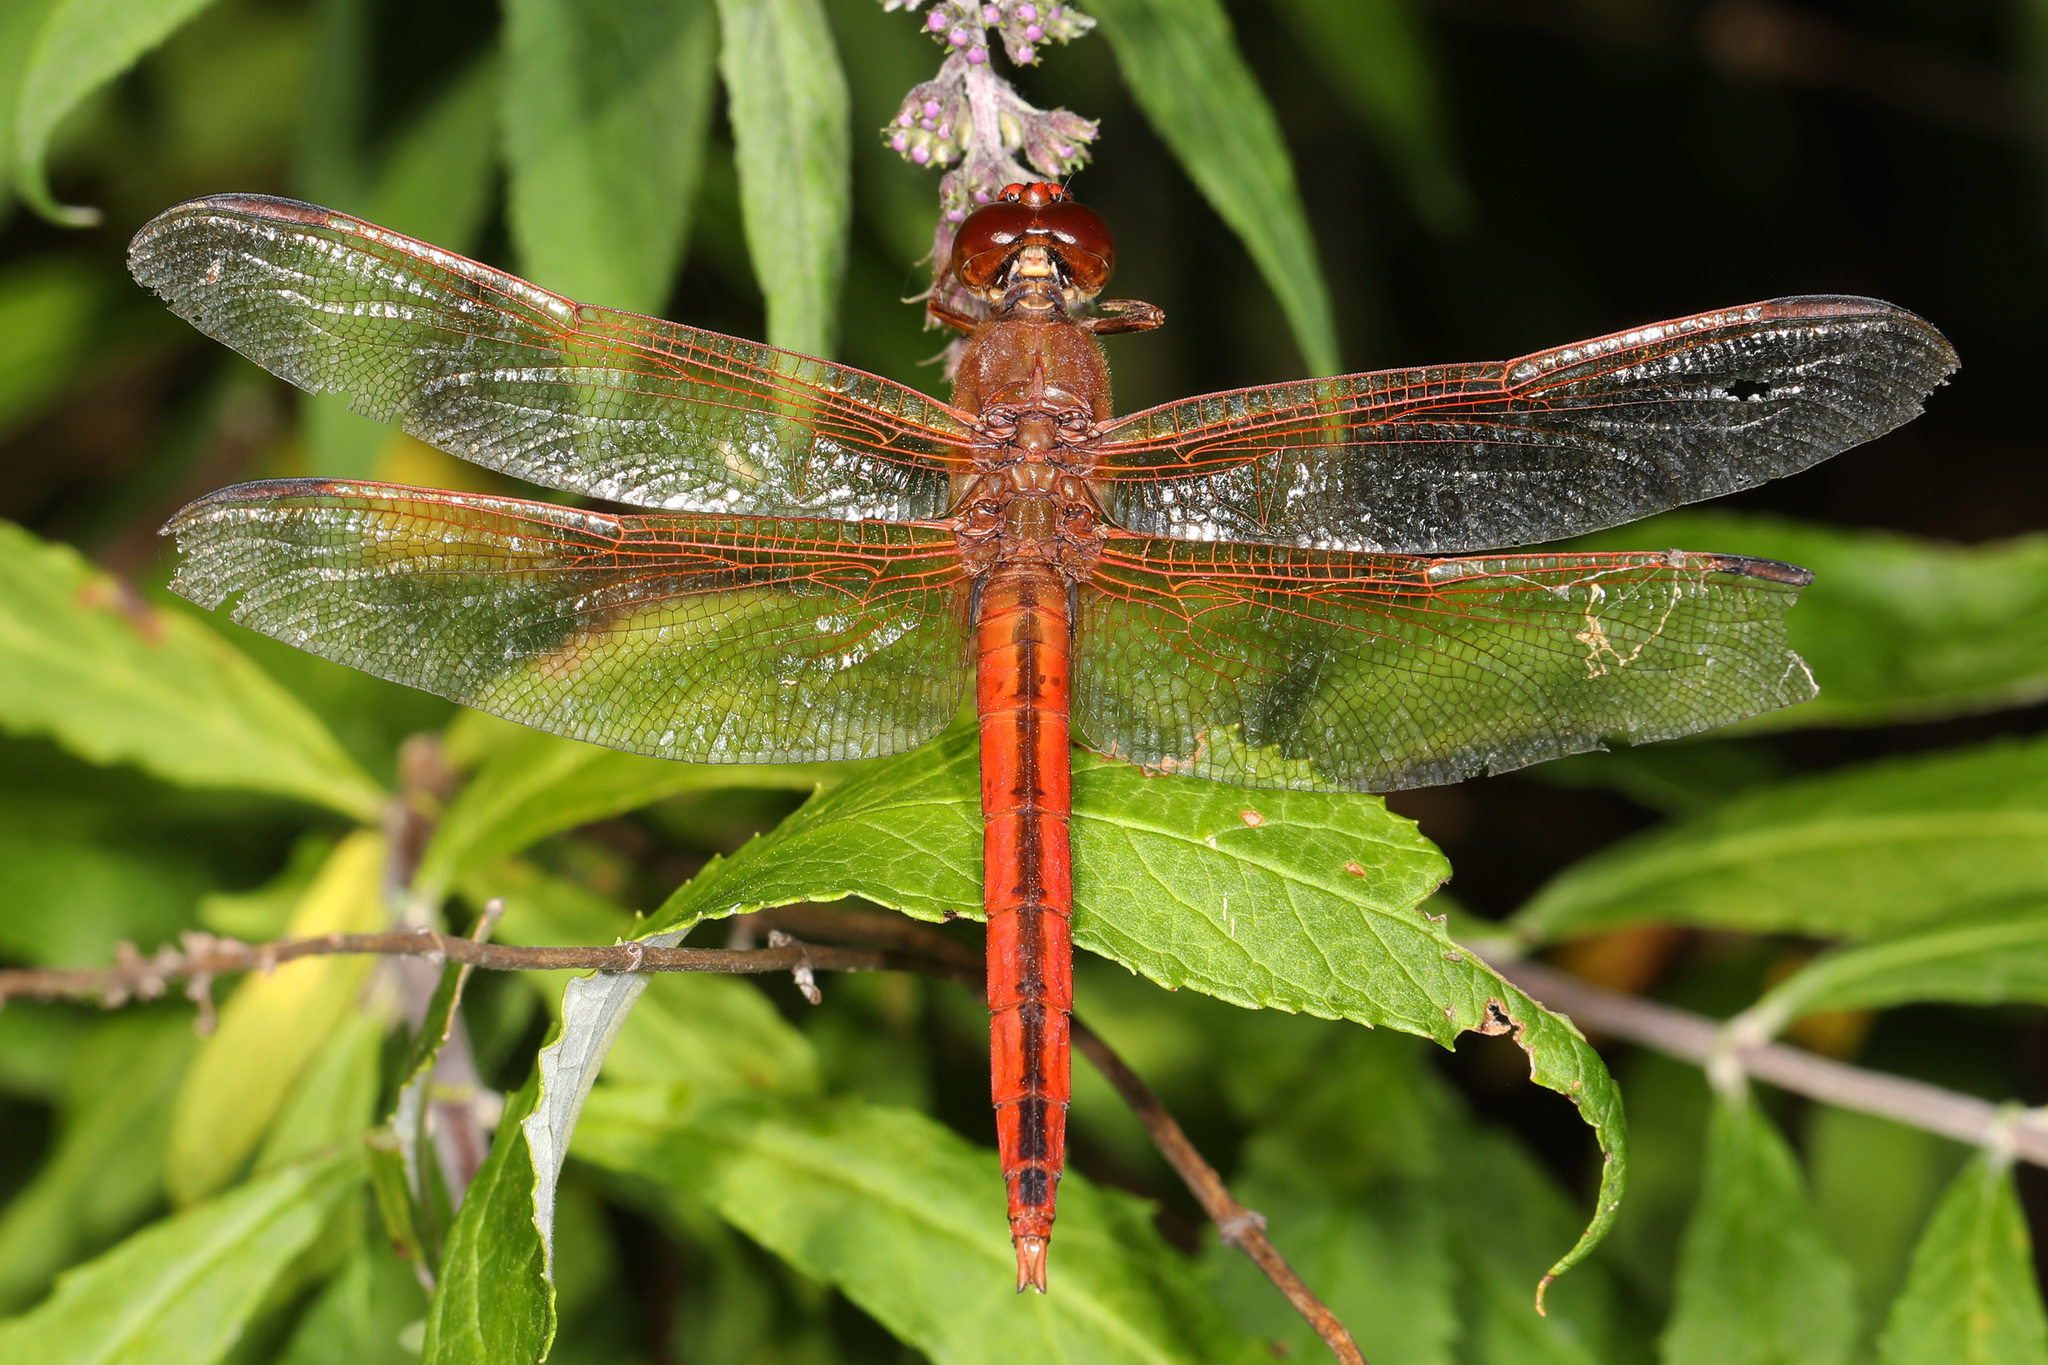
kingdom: Animalia
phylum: Arthropoda
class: Insecta
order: Odonata
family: Libellulidae
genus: Libellula
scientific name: Libellula needhami
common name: Needham's skimmer
